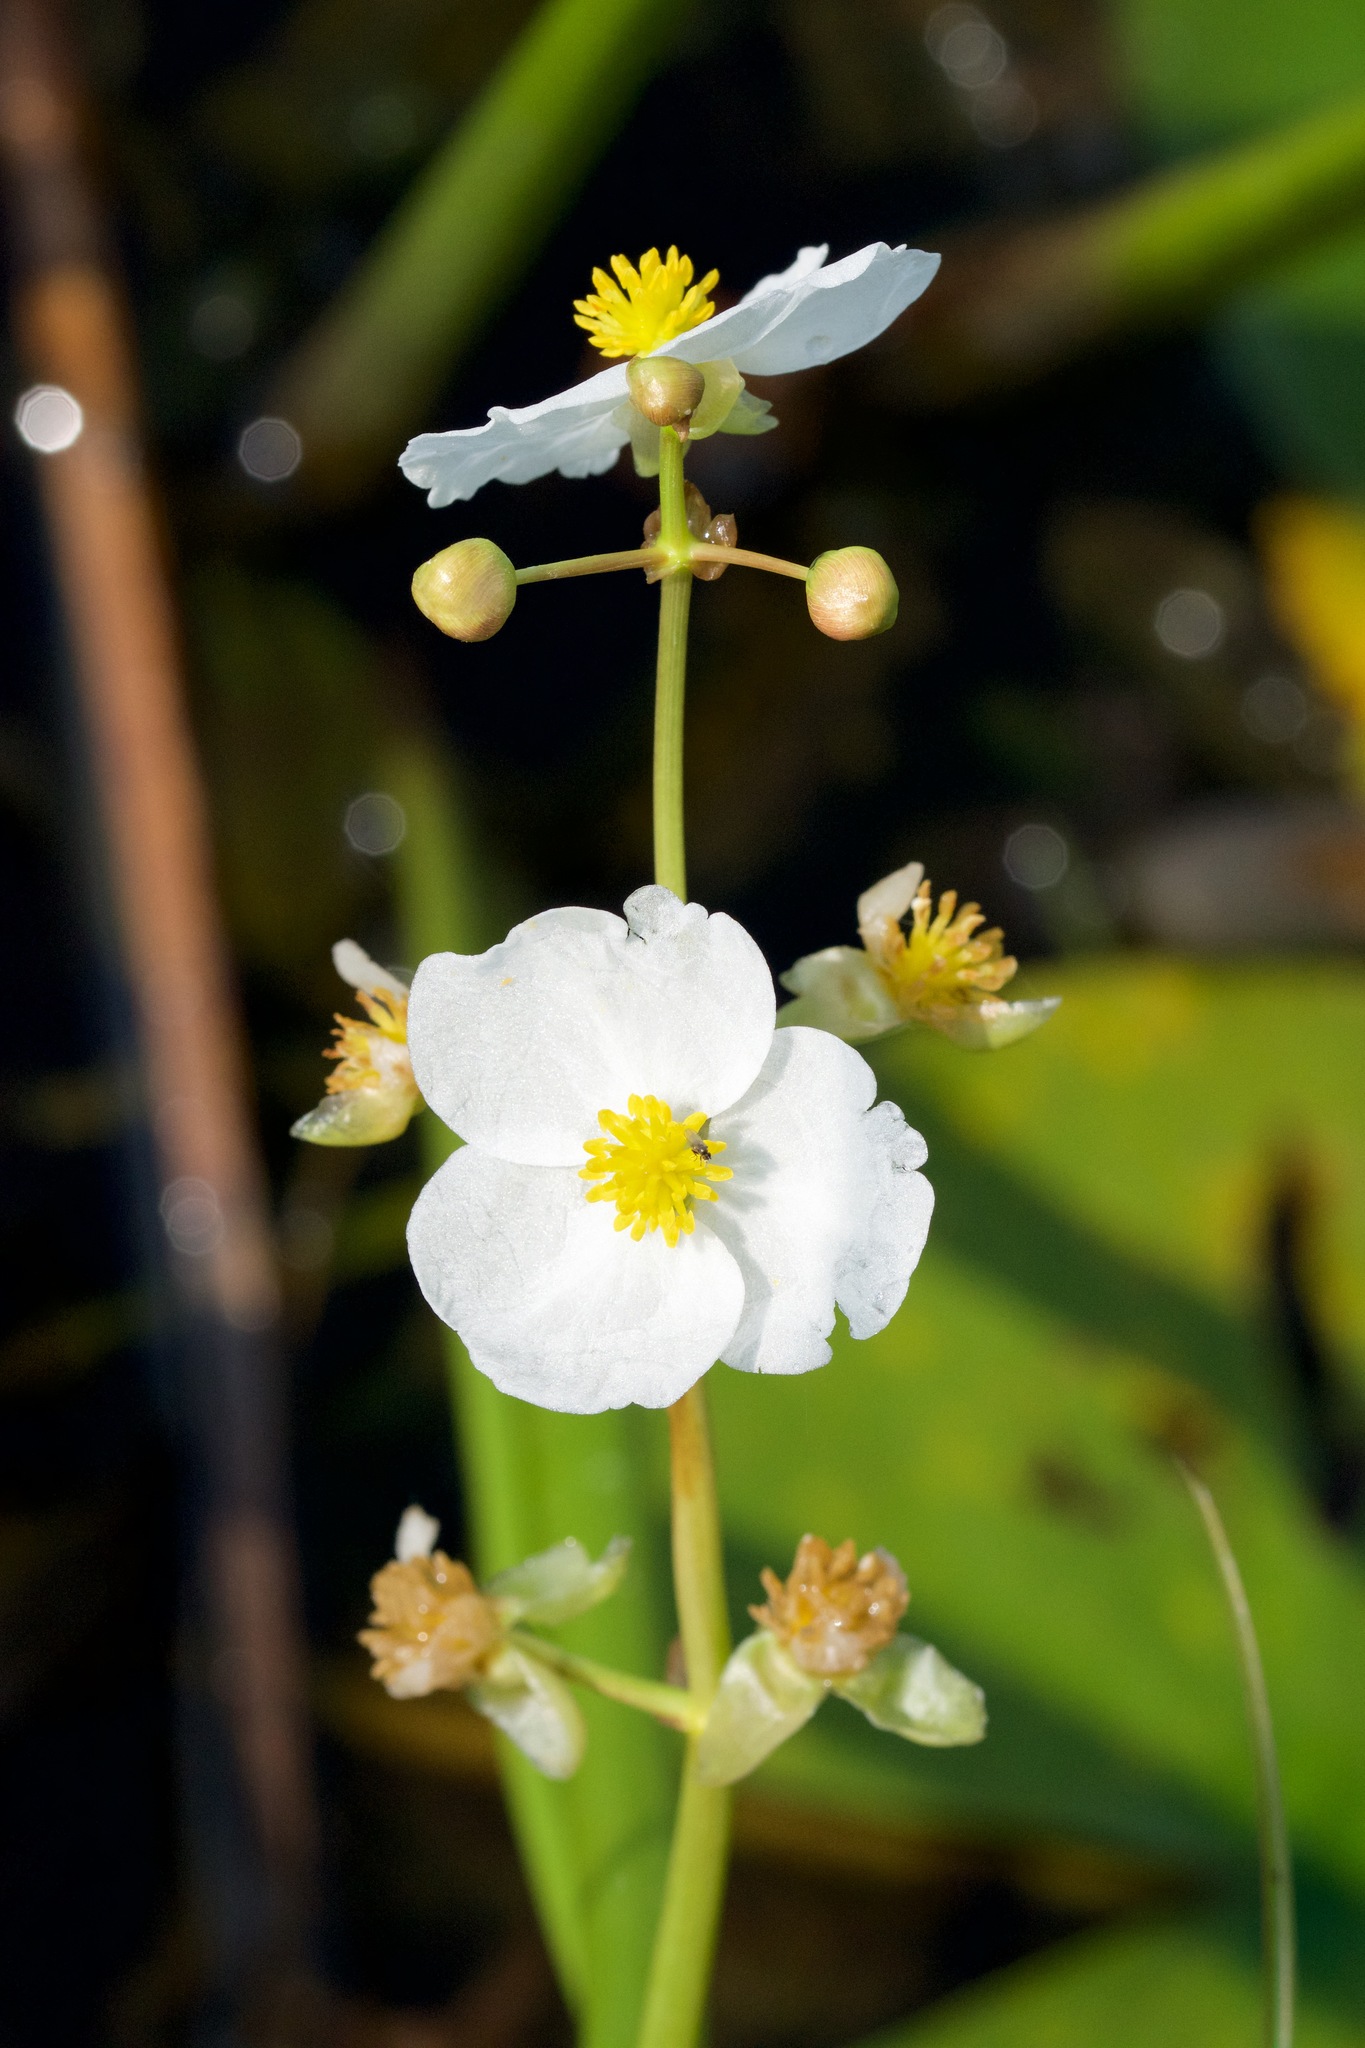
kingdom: Plantae
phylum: Tracheophyta
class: Liliopsida
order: Alismatales
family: Alismataceae
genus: Sagittaria
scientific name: Sagittaria latifolia
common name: Duck-potato
